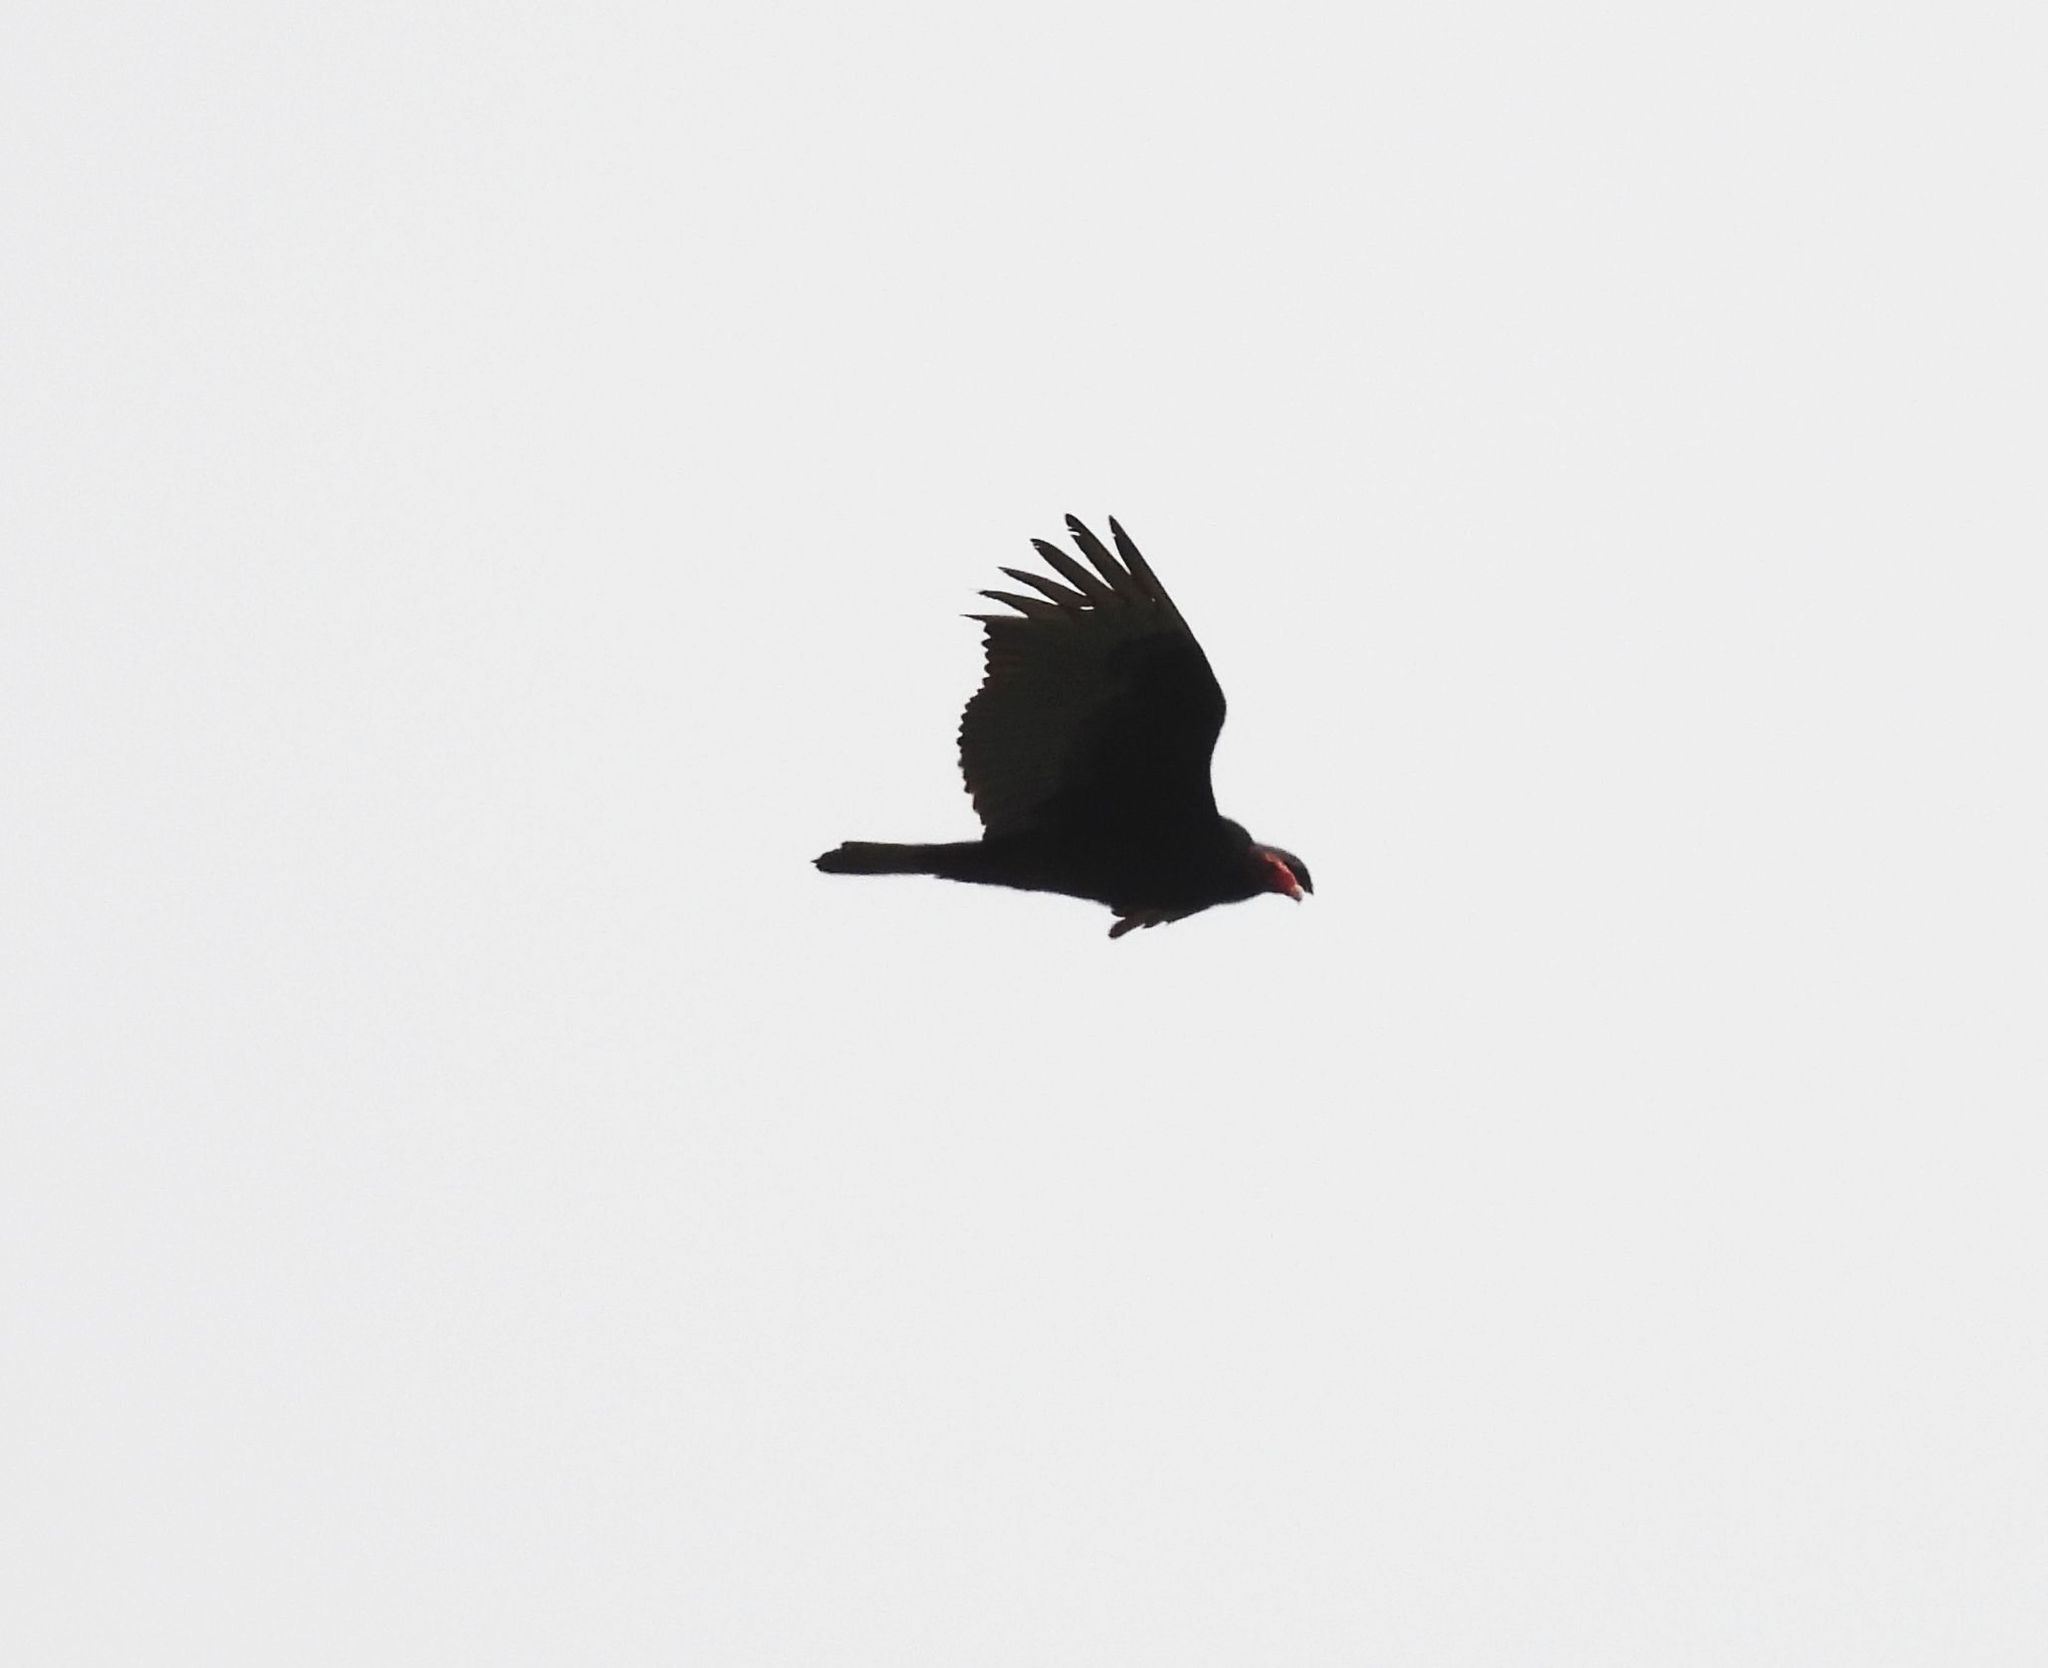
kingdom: Animalia
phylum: Chordata
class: Aves
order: Accipitriformes
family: Cathartidae
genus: Cathartes
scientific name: Cathartes aura
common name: Turkey vulture
